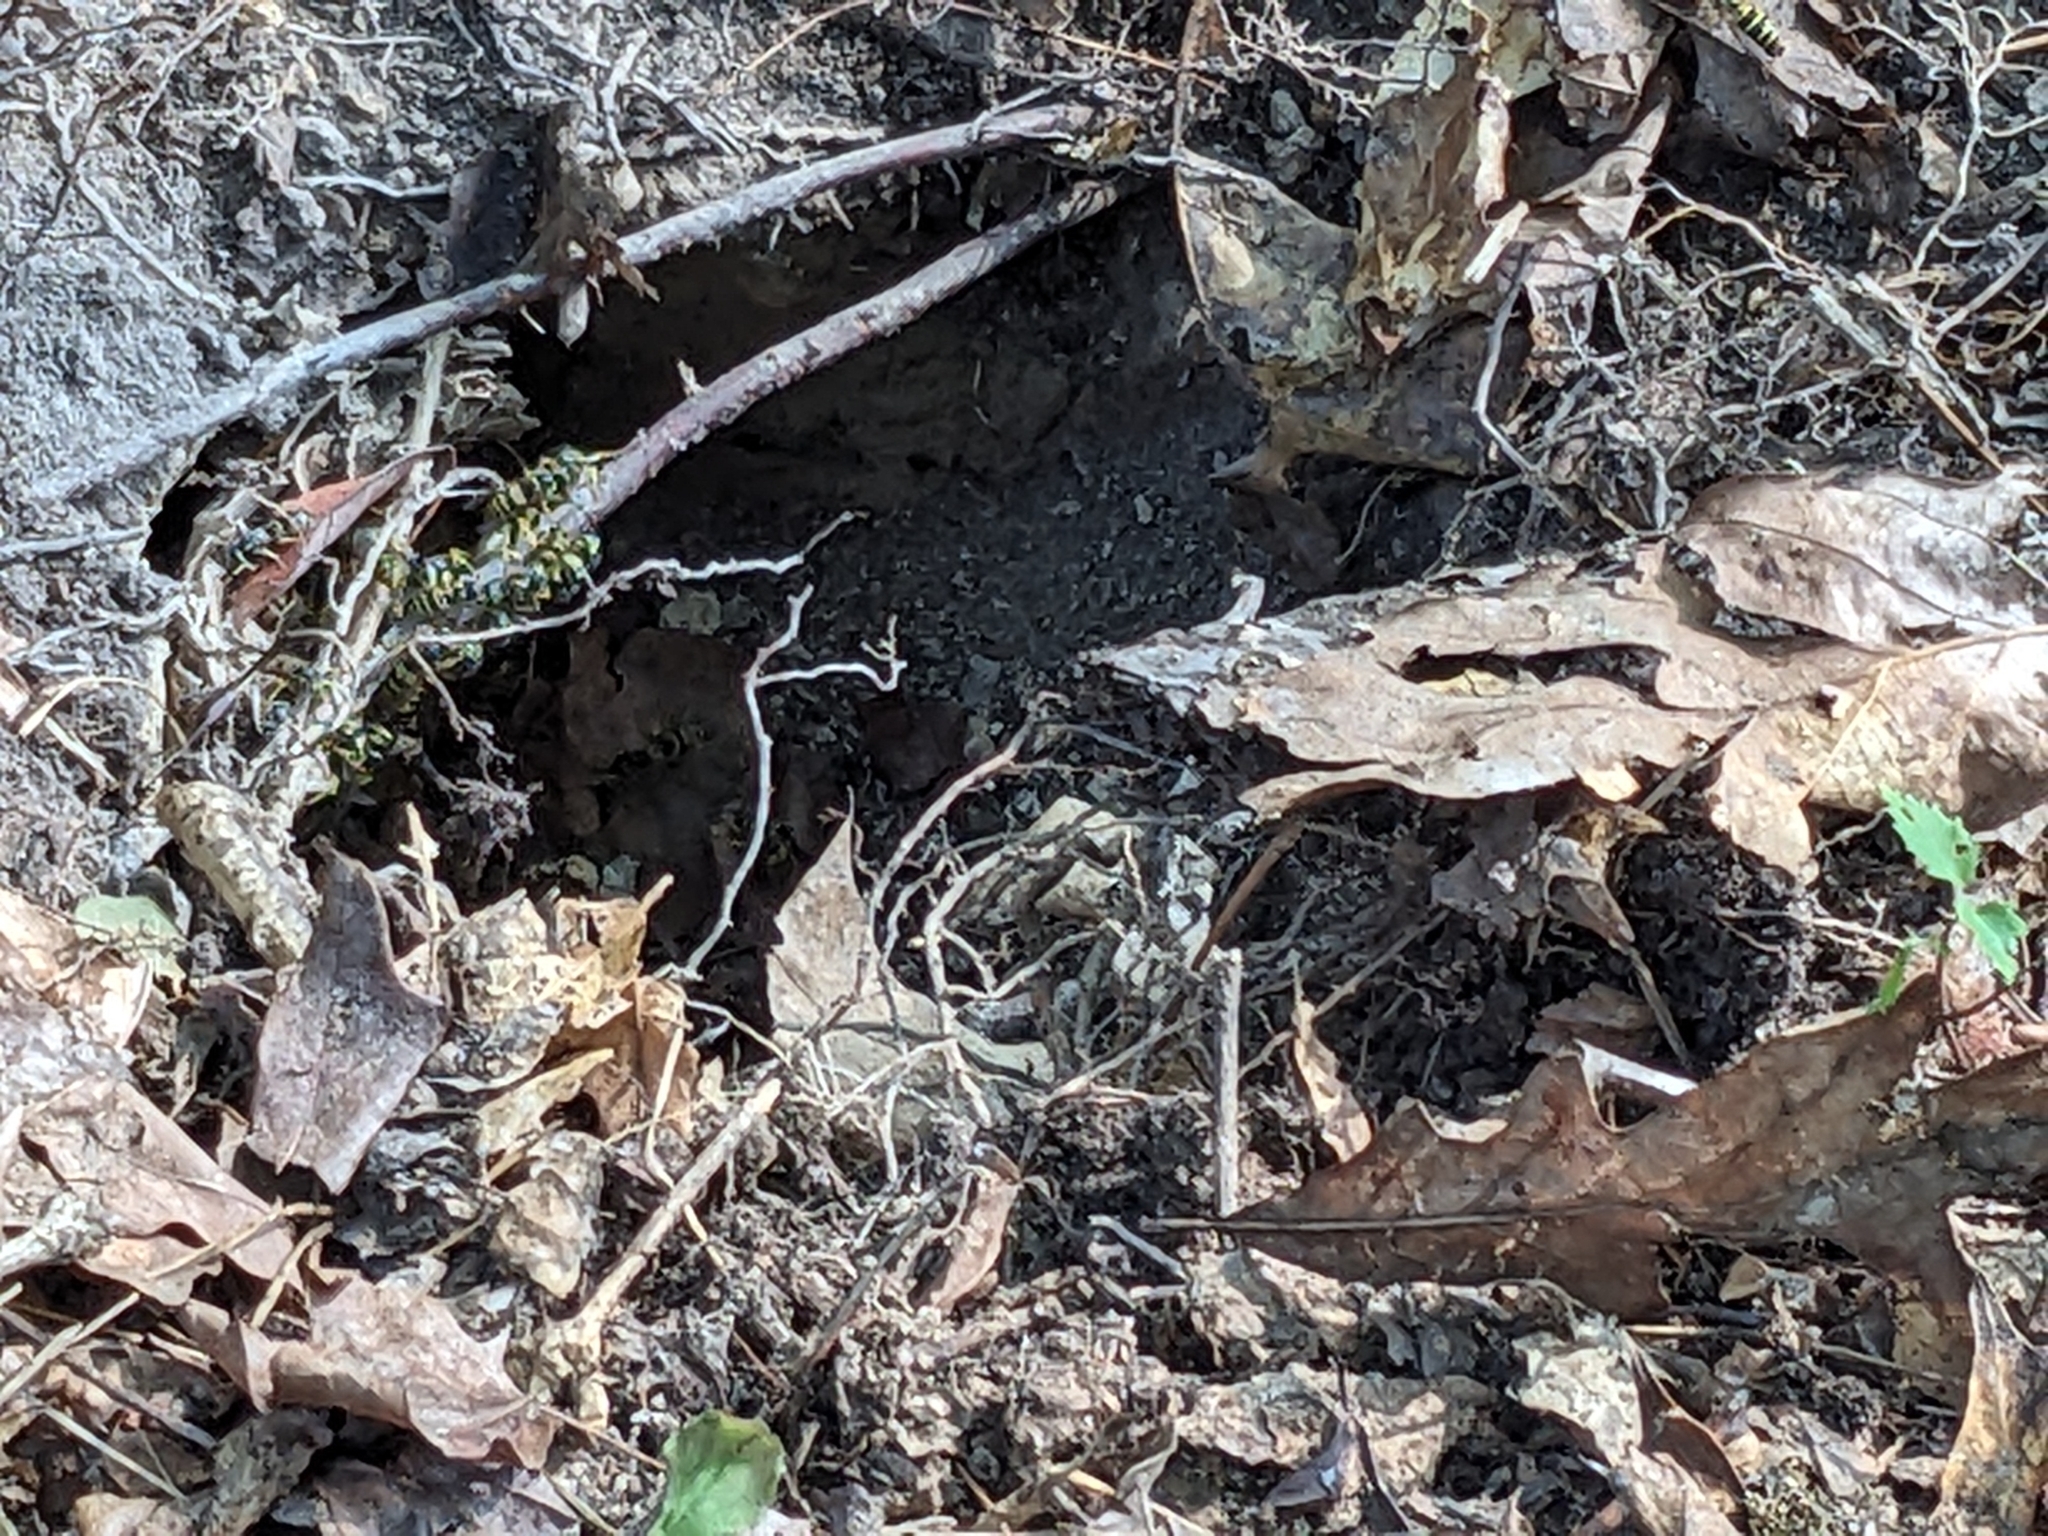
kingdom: Animalia
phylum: Arthropoda
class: Insecta
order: Hymenoptera
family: Vespidae
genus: Vespula
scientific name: Vespula maculifrons
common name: Eastern yellowjacket
